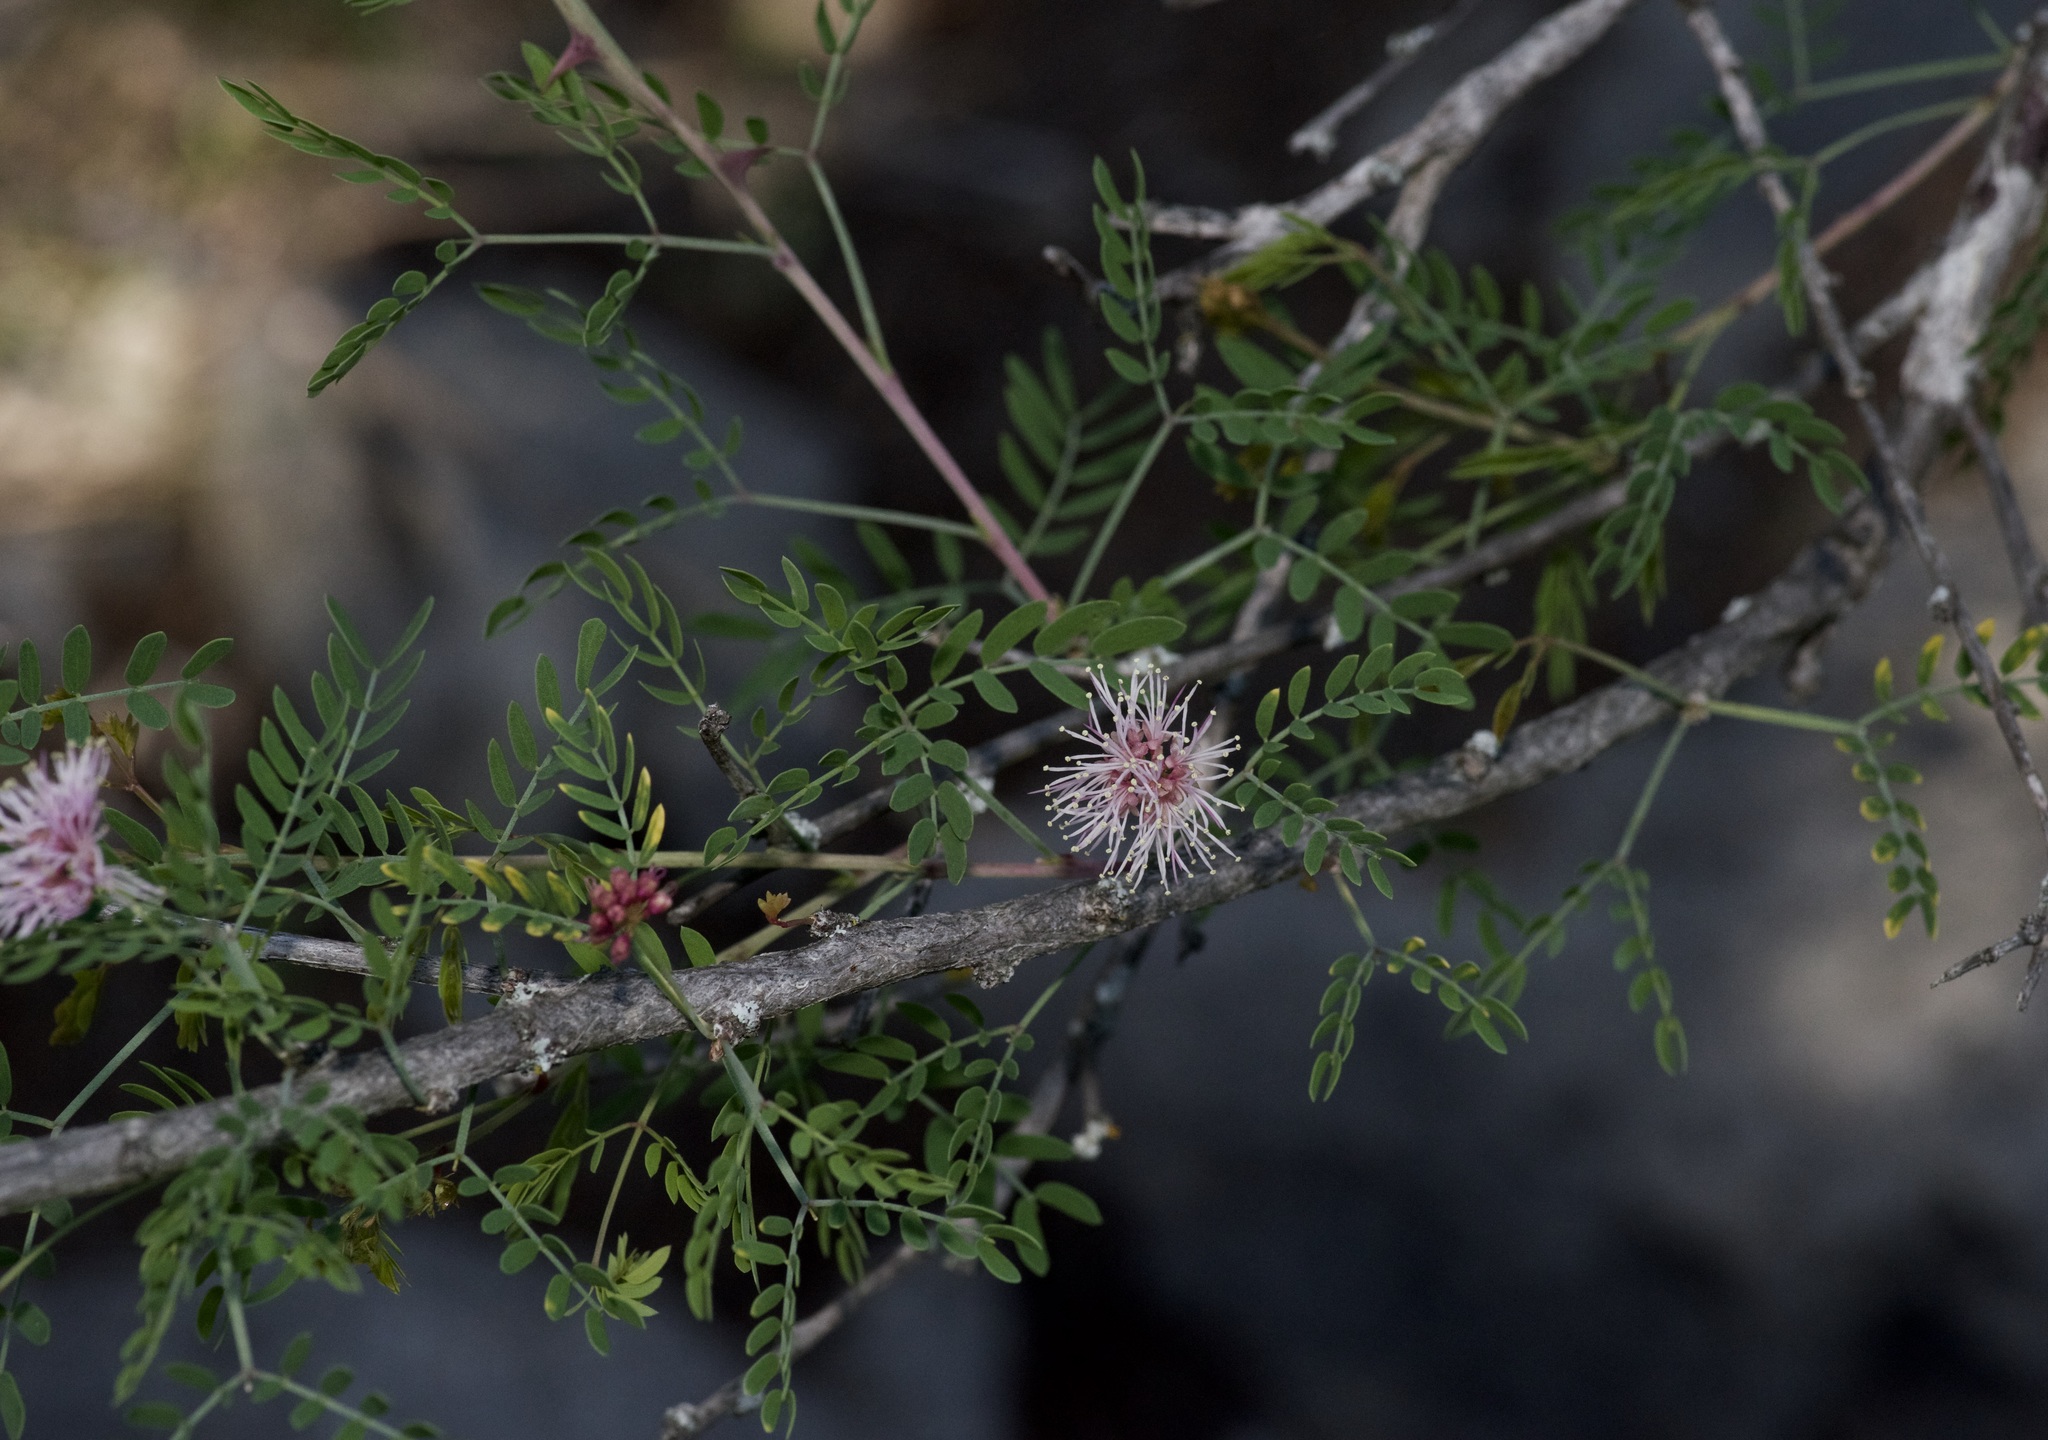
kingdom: Plantae
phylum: Tracheophyta
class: Magnoliopsida
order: Fabales
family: Fabaceae
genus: Mimosa
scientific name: Mimosa borealis
